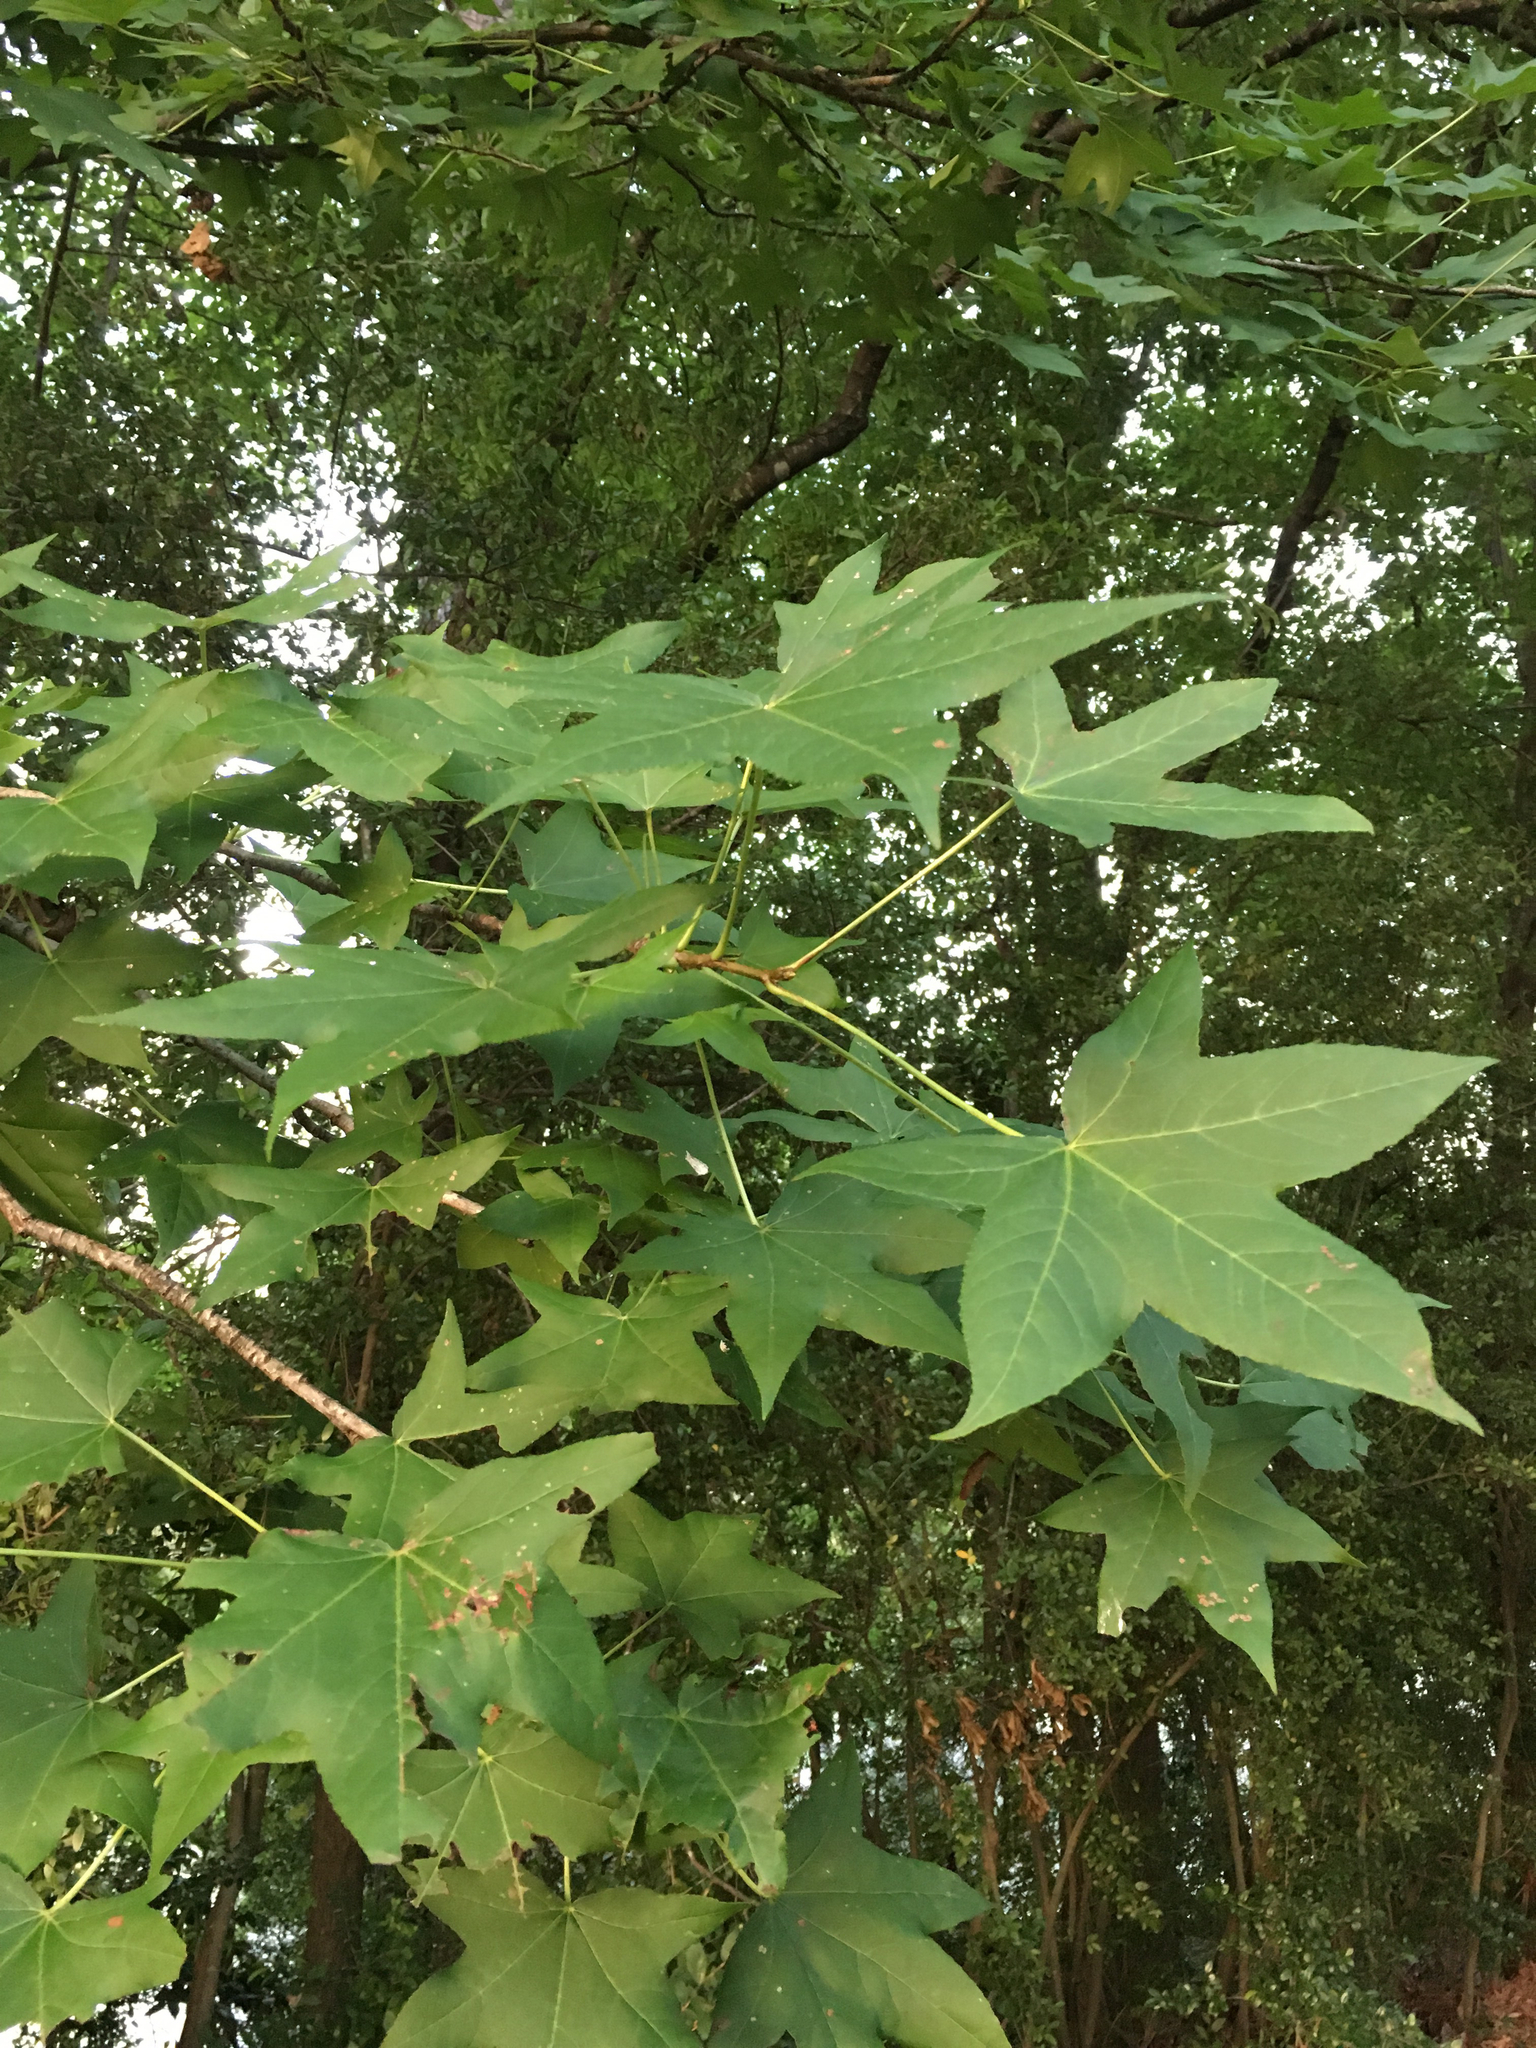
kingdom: Plantae
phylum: Tracheophyta
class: Magnoliopsida
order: Saxifragales
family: Altingiaceae
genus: Liquidambar
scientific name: Liquidambar styraciflua
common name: Sweet gum
